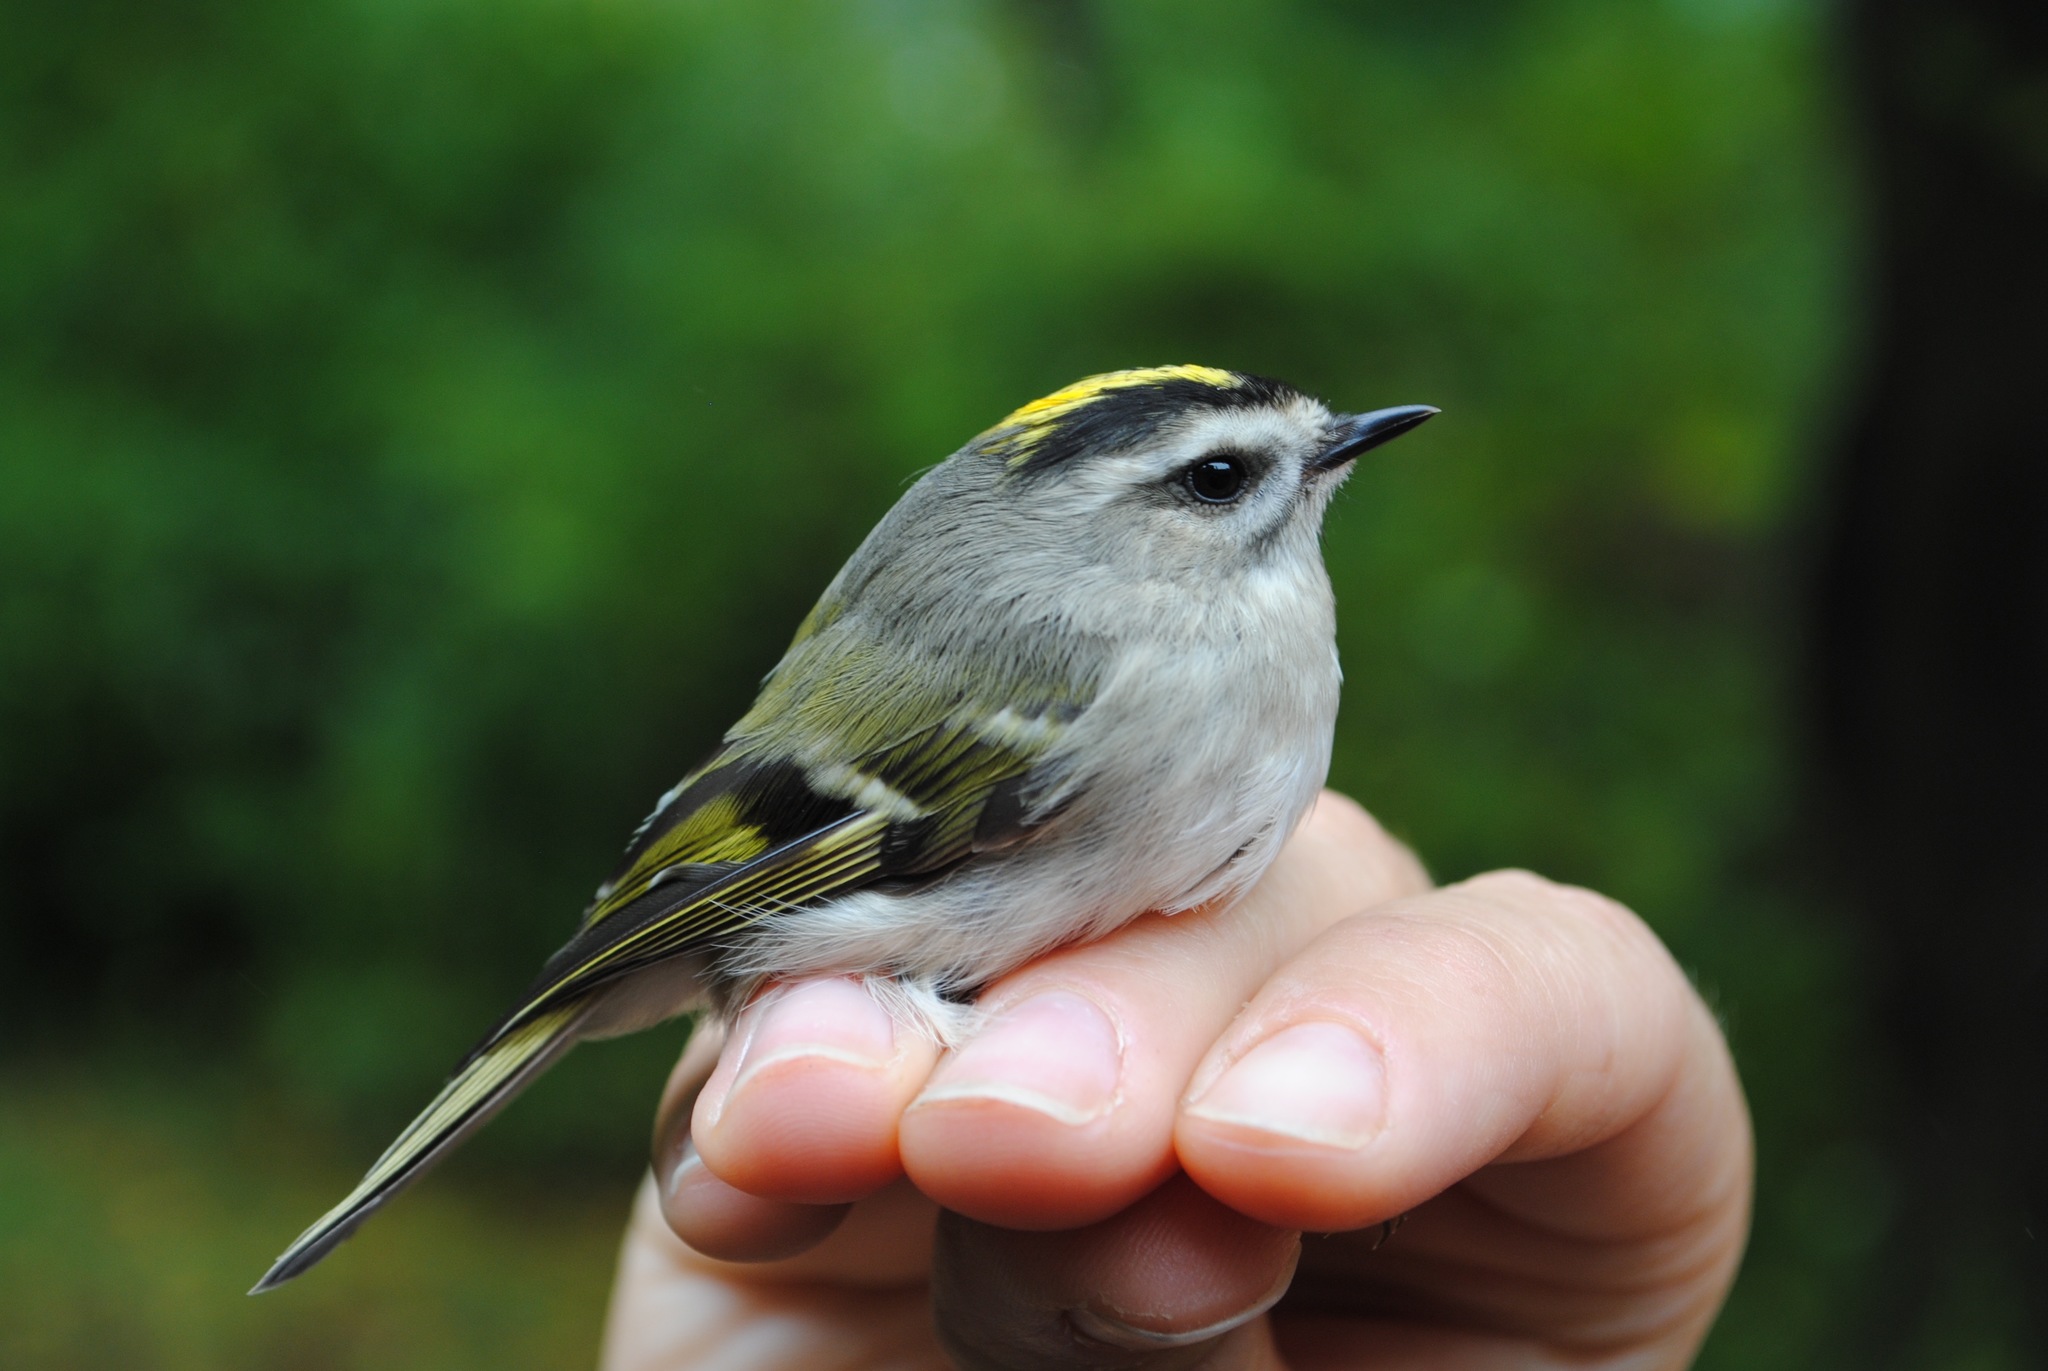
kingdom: Animalia
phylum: Chordata
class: Aves
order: Passeriformes
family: Regulidae
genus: Regulus
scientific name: Regulus satrapa
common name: Golden-crowned kinglet
